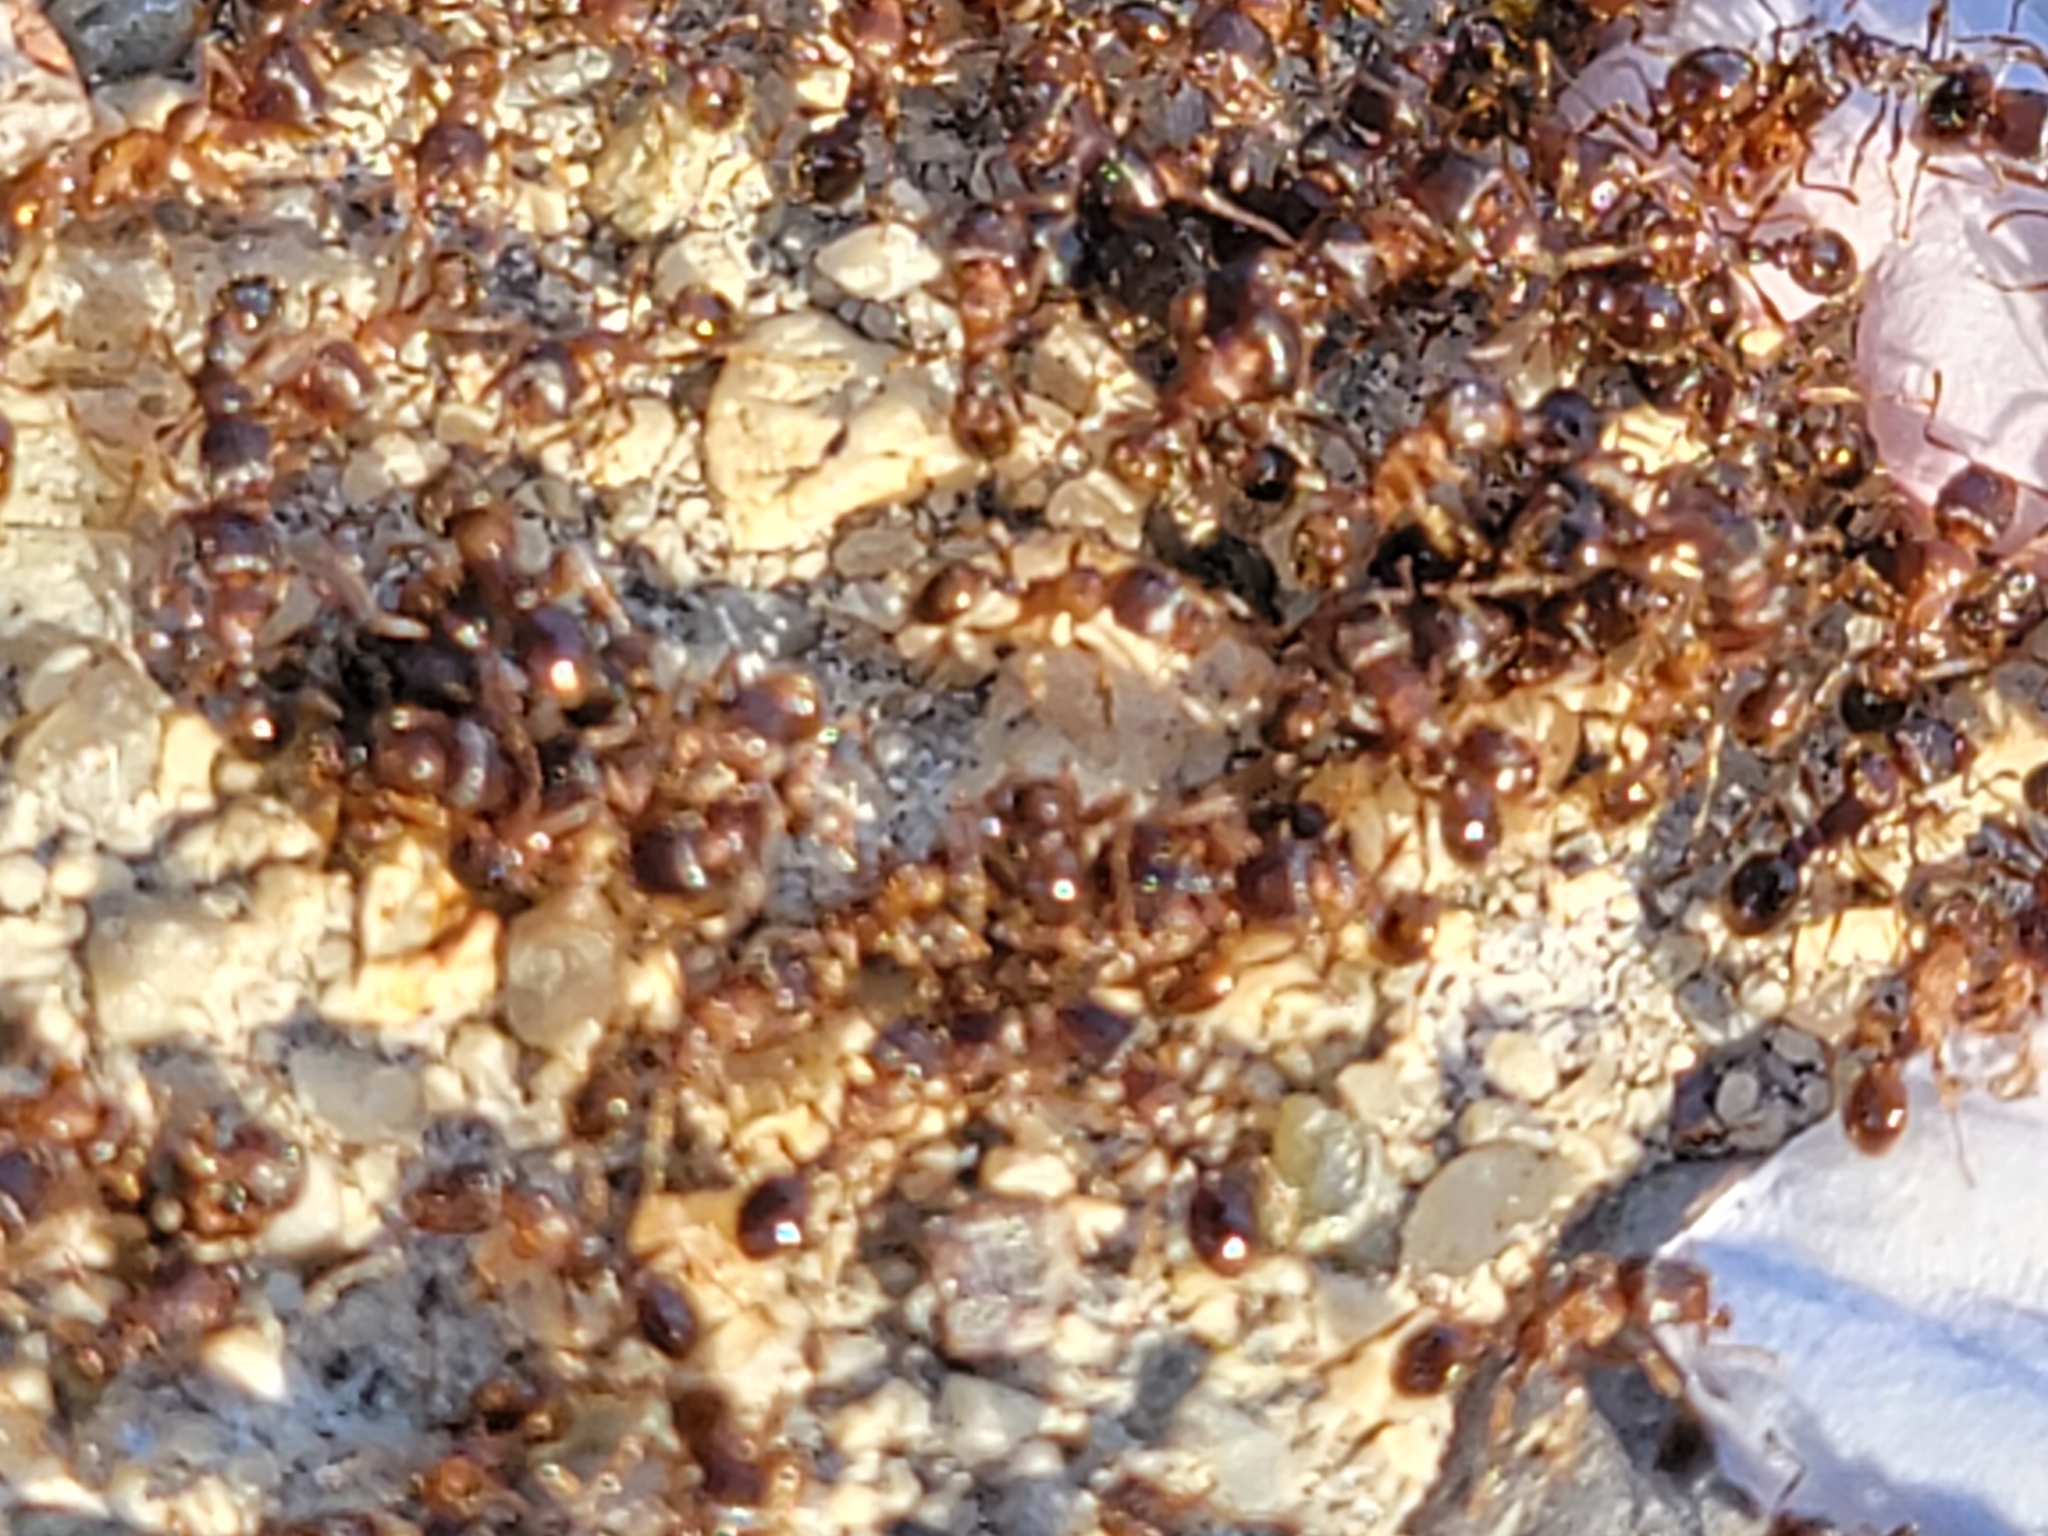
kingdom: Animalia
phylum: Arthropoda
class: Insecta
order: Hymenoptera
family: Formicidae
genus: Tetramorium
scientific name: Tetramorium immigrans
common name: Pavement ant
